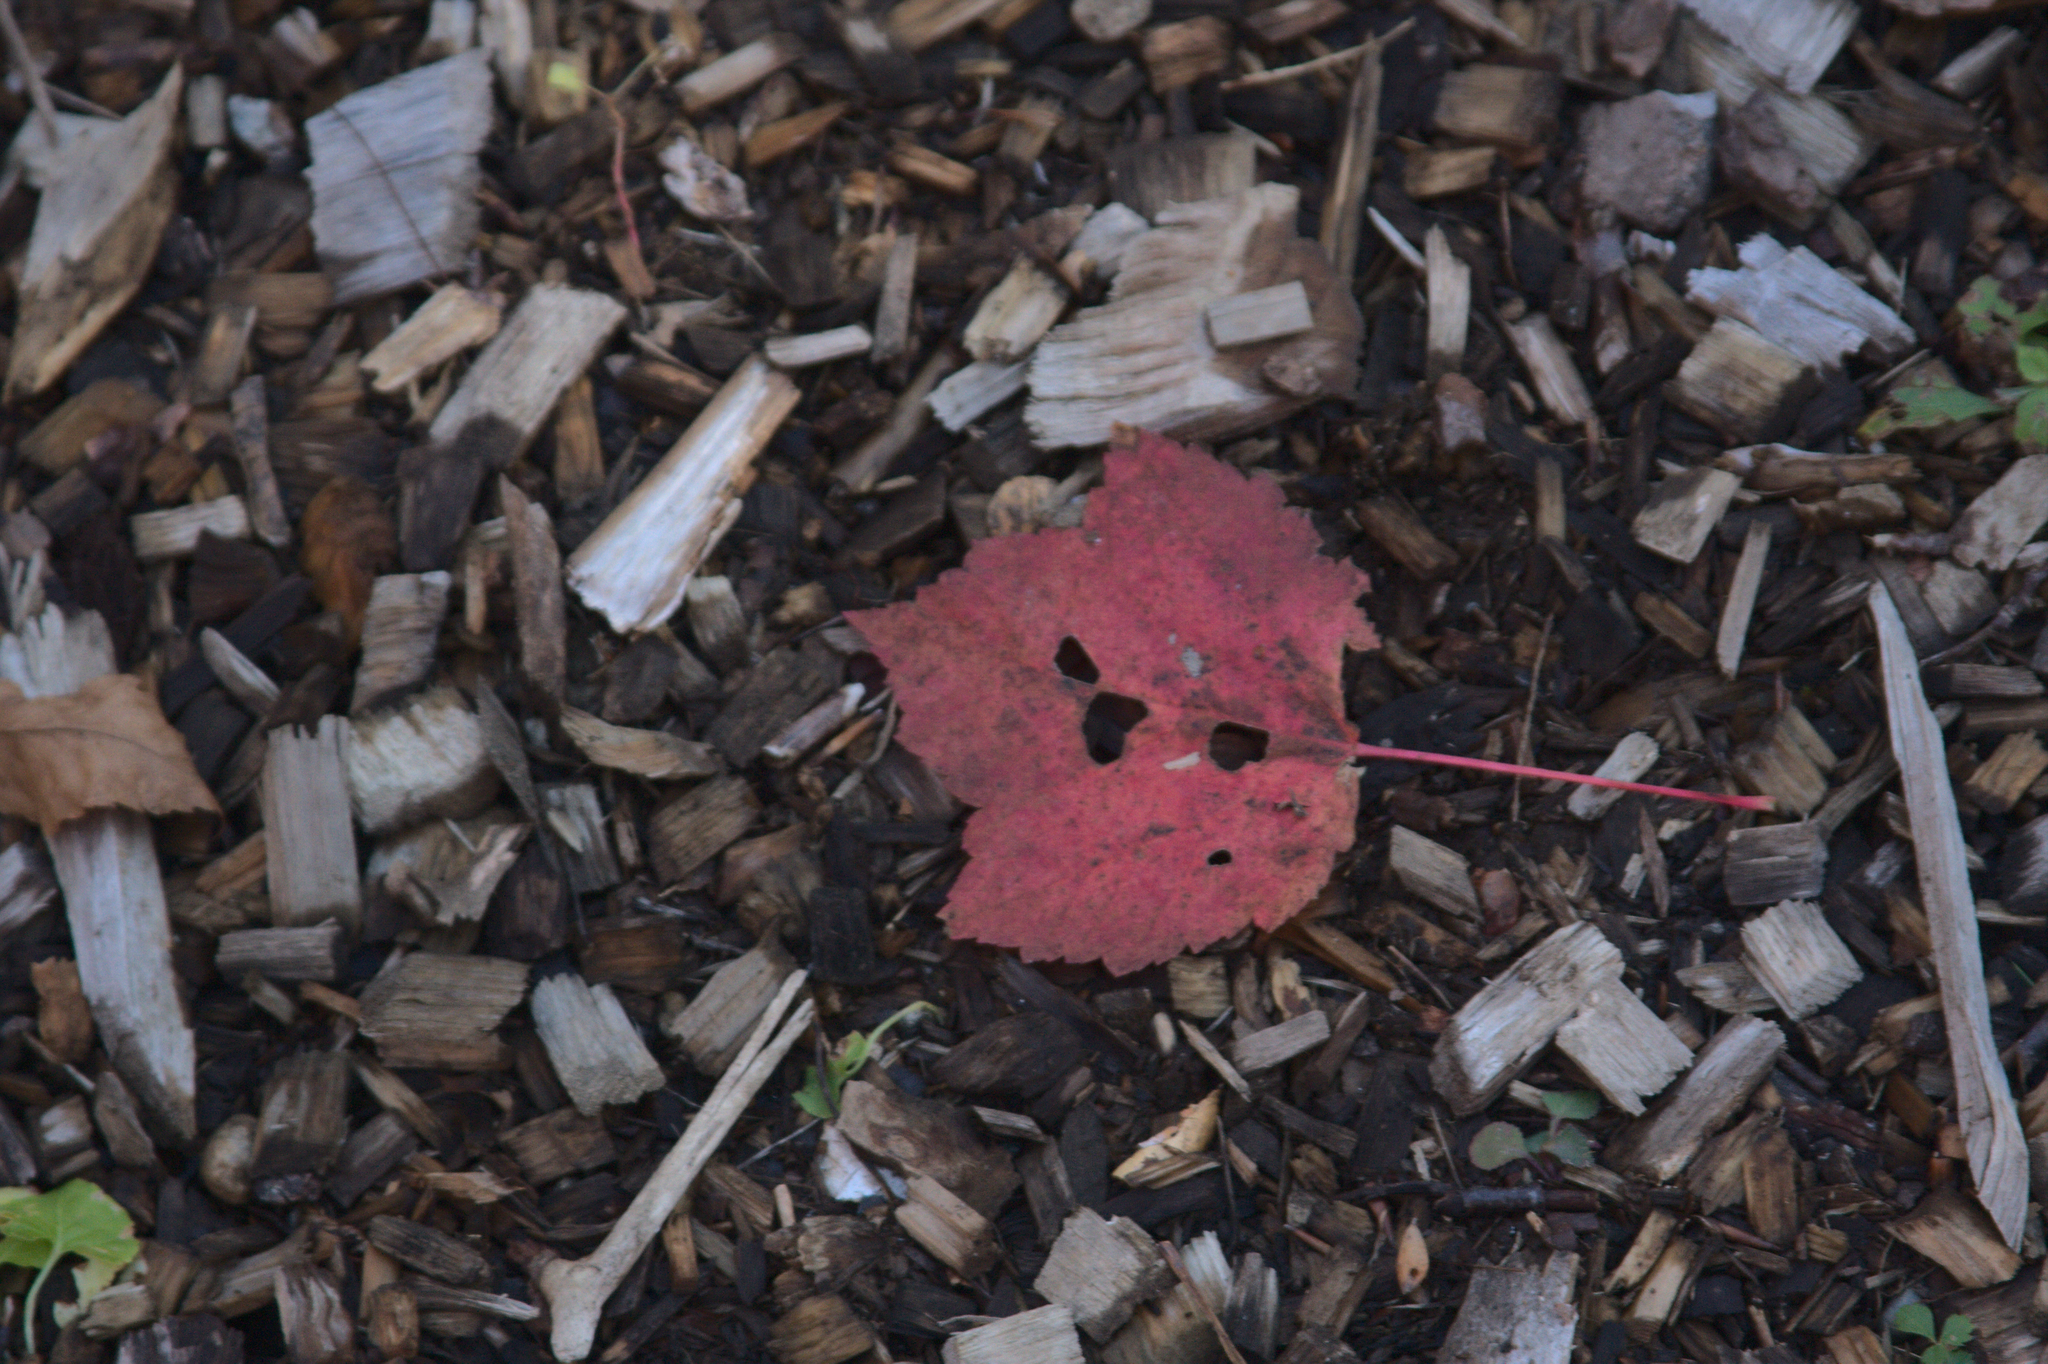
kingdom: Plantae
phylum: Tracheophyta
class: Magnoliopsida
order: Sapindales
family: Sapindaceae
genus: Acer
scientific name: Acer rubrum
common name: Red maple
